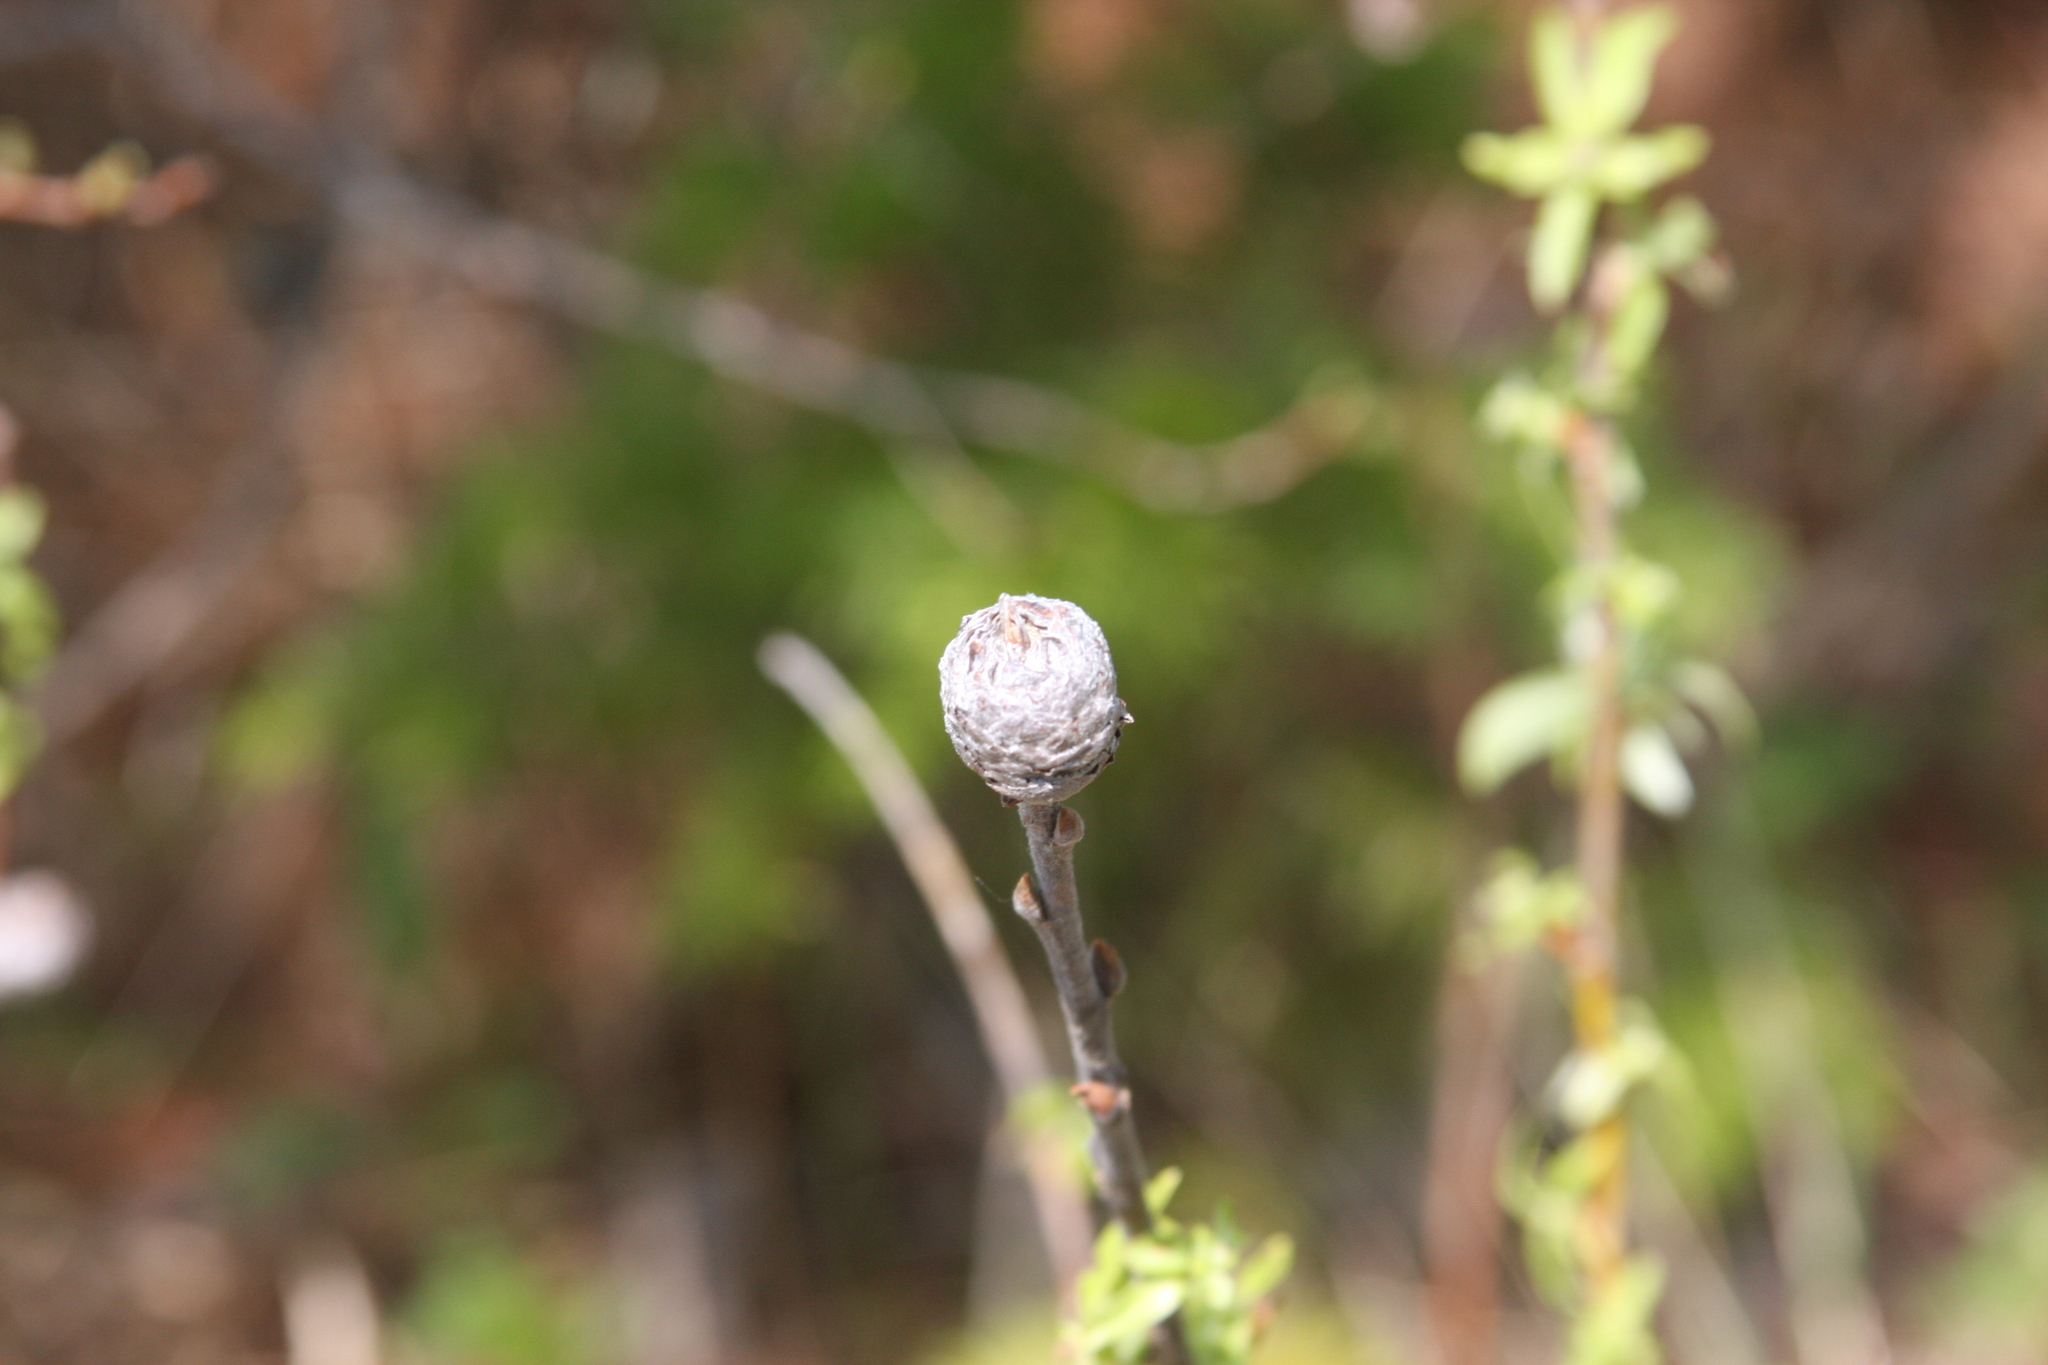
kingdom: Animalia
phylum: Arthropoda
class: Insecta
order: Diptera
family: Cecidomyiidae
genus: Rabdophaga
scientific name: Rabdophaga strobiloides
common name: Willow pinecone gall midge
